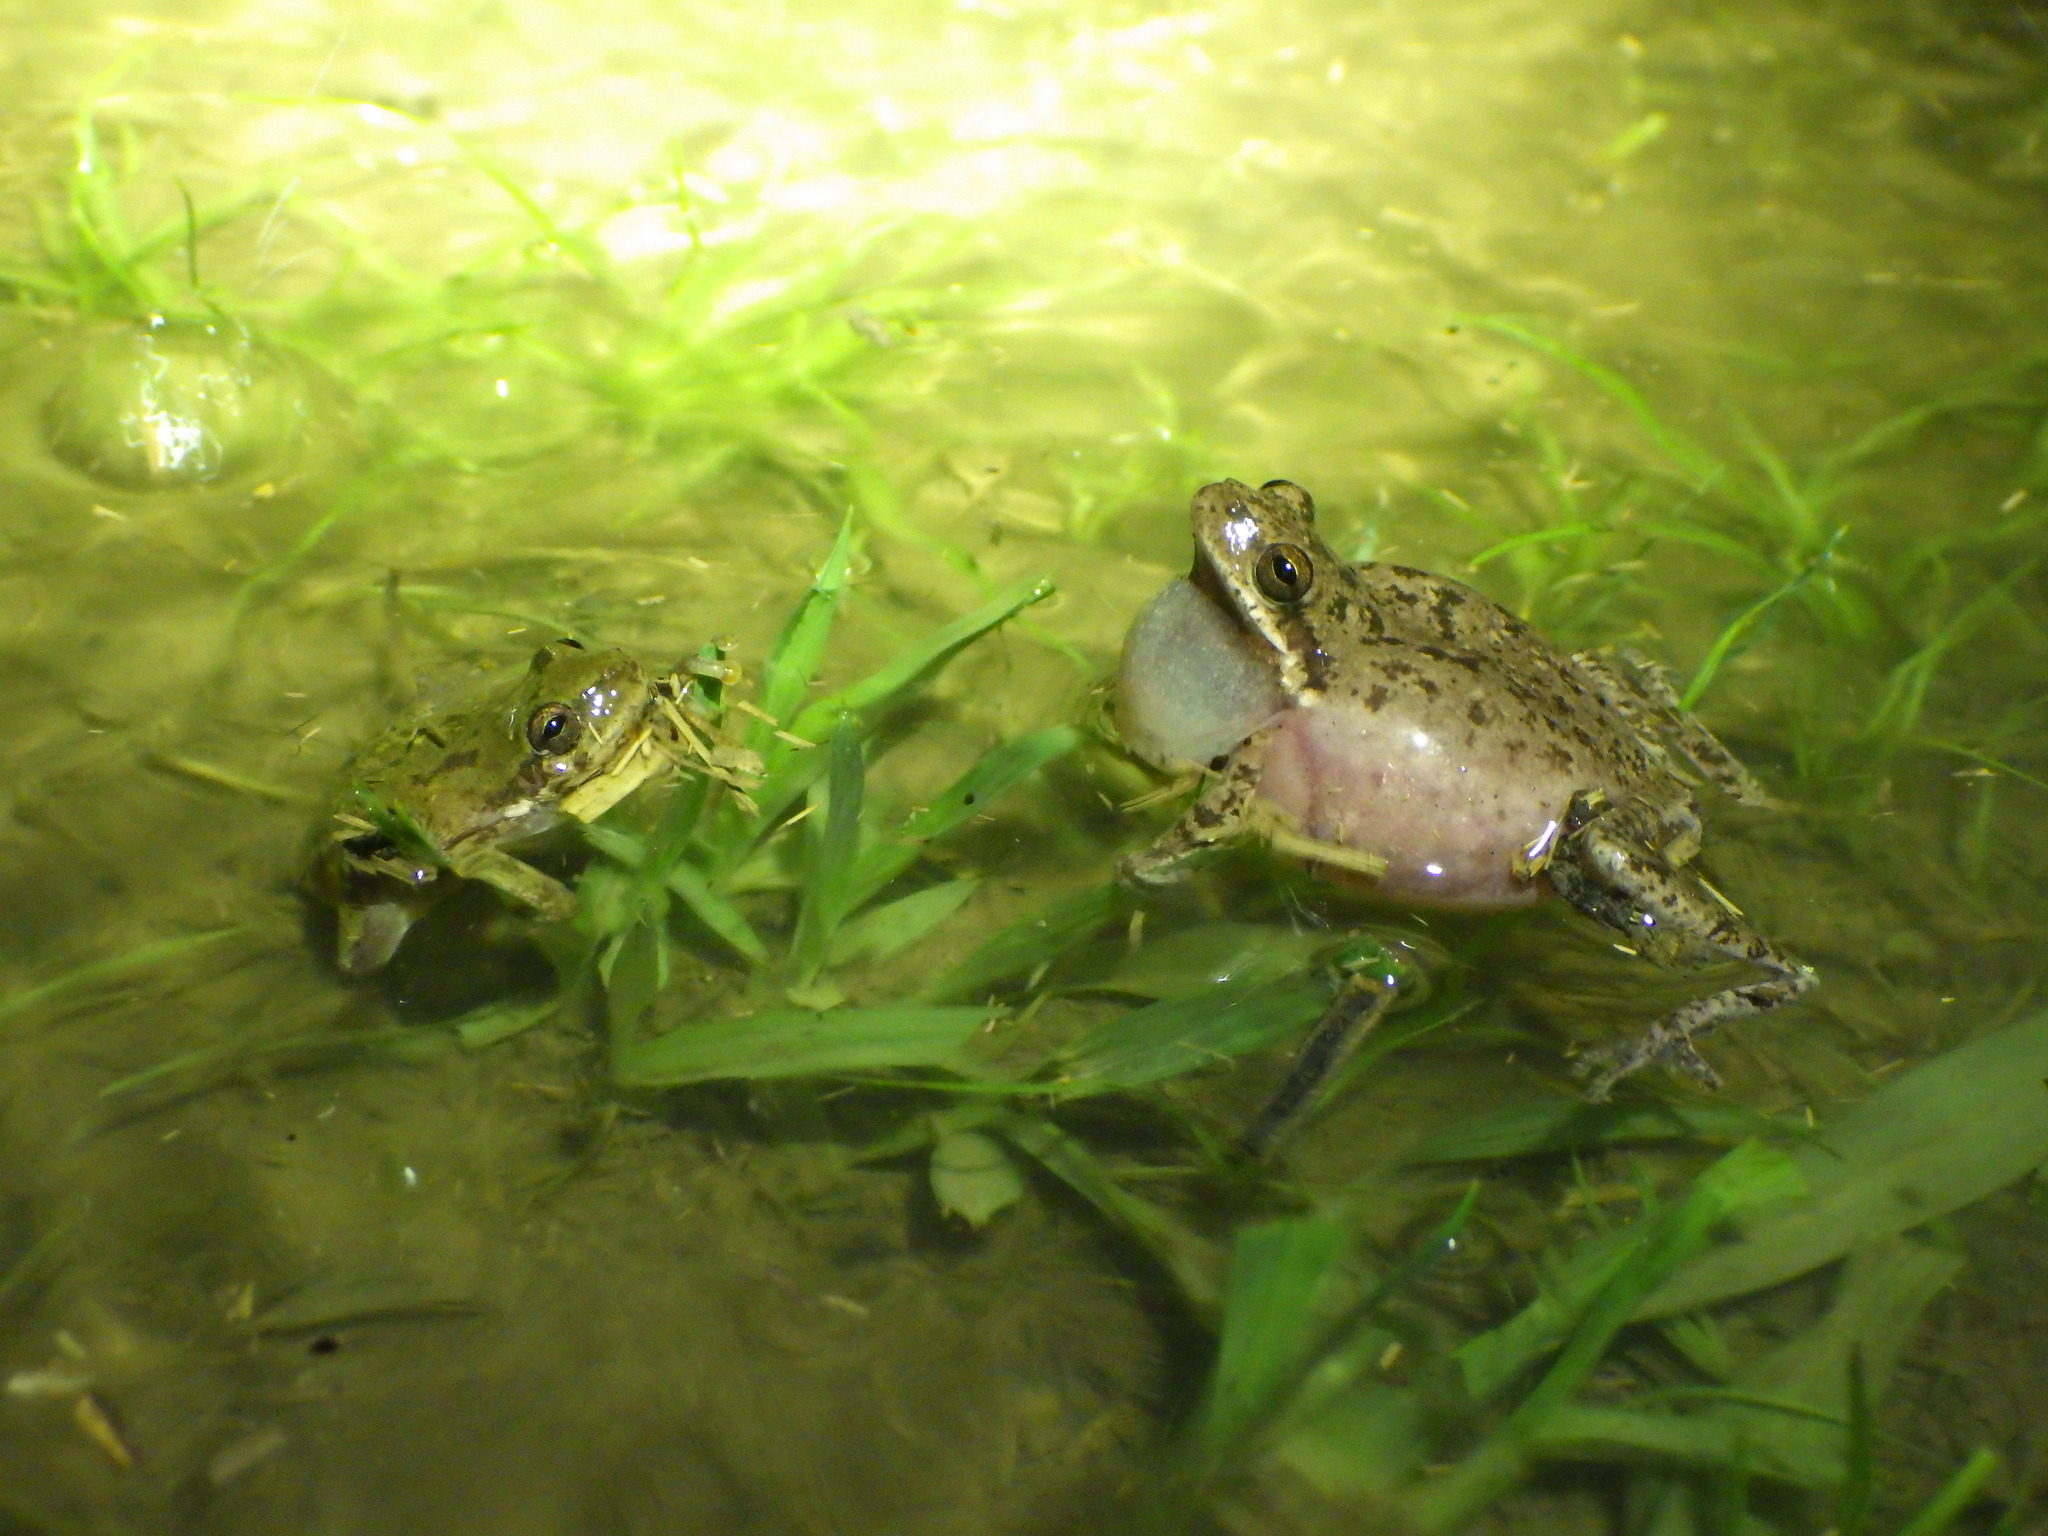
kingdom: Animalia
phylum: Chordata
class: Amphibia
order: Anura
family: Hylidae
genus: Dryophytes
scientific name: Dryophytes squirellus
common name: Squirrel treefrog
